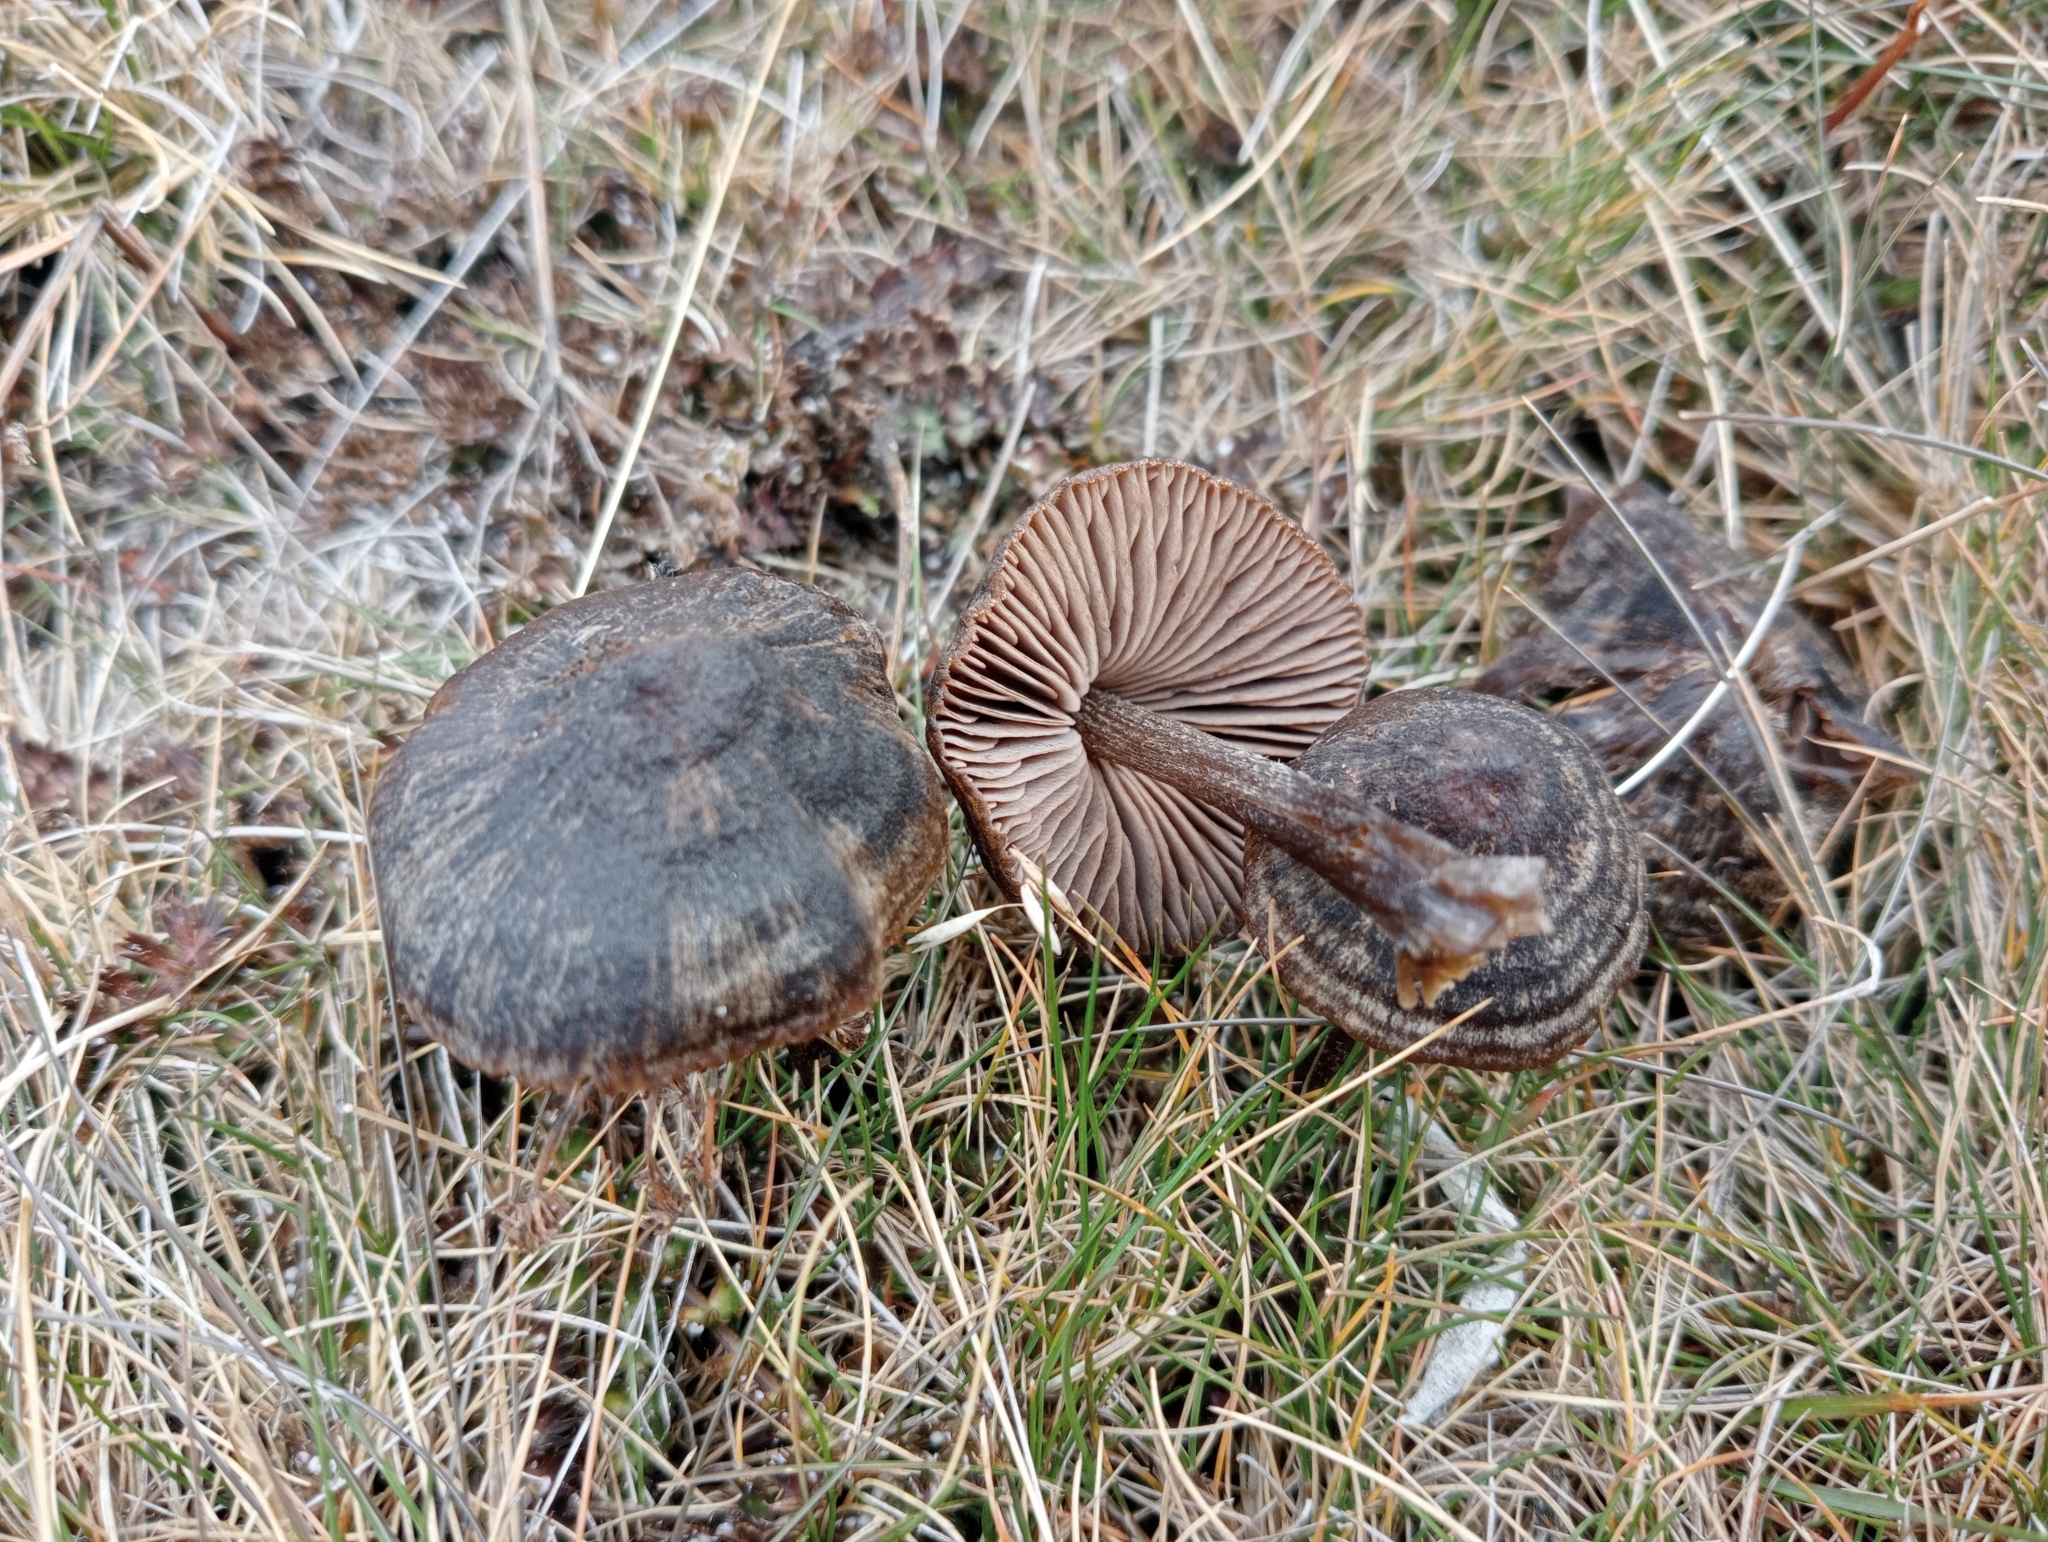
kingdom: Fungi
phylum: Basidiomycota
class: Agaricomycetes
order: Agaricales
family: Entolomataceae
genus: Entoloma
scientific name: Entoloma perzonatum
